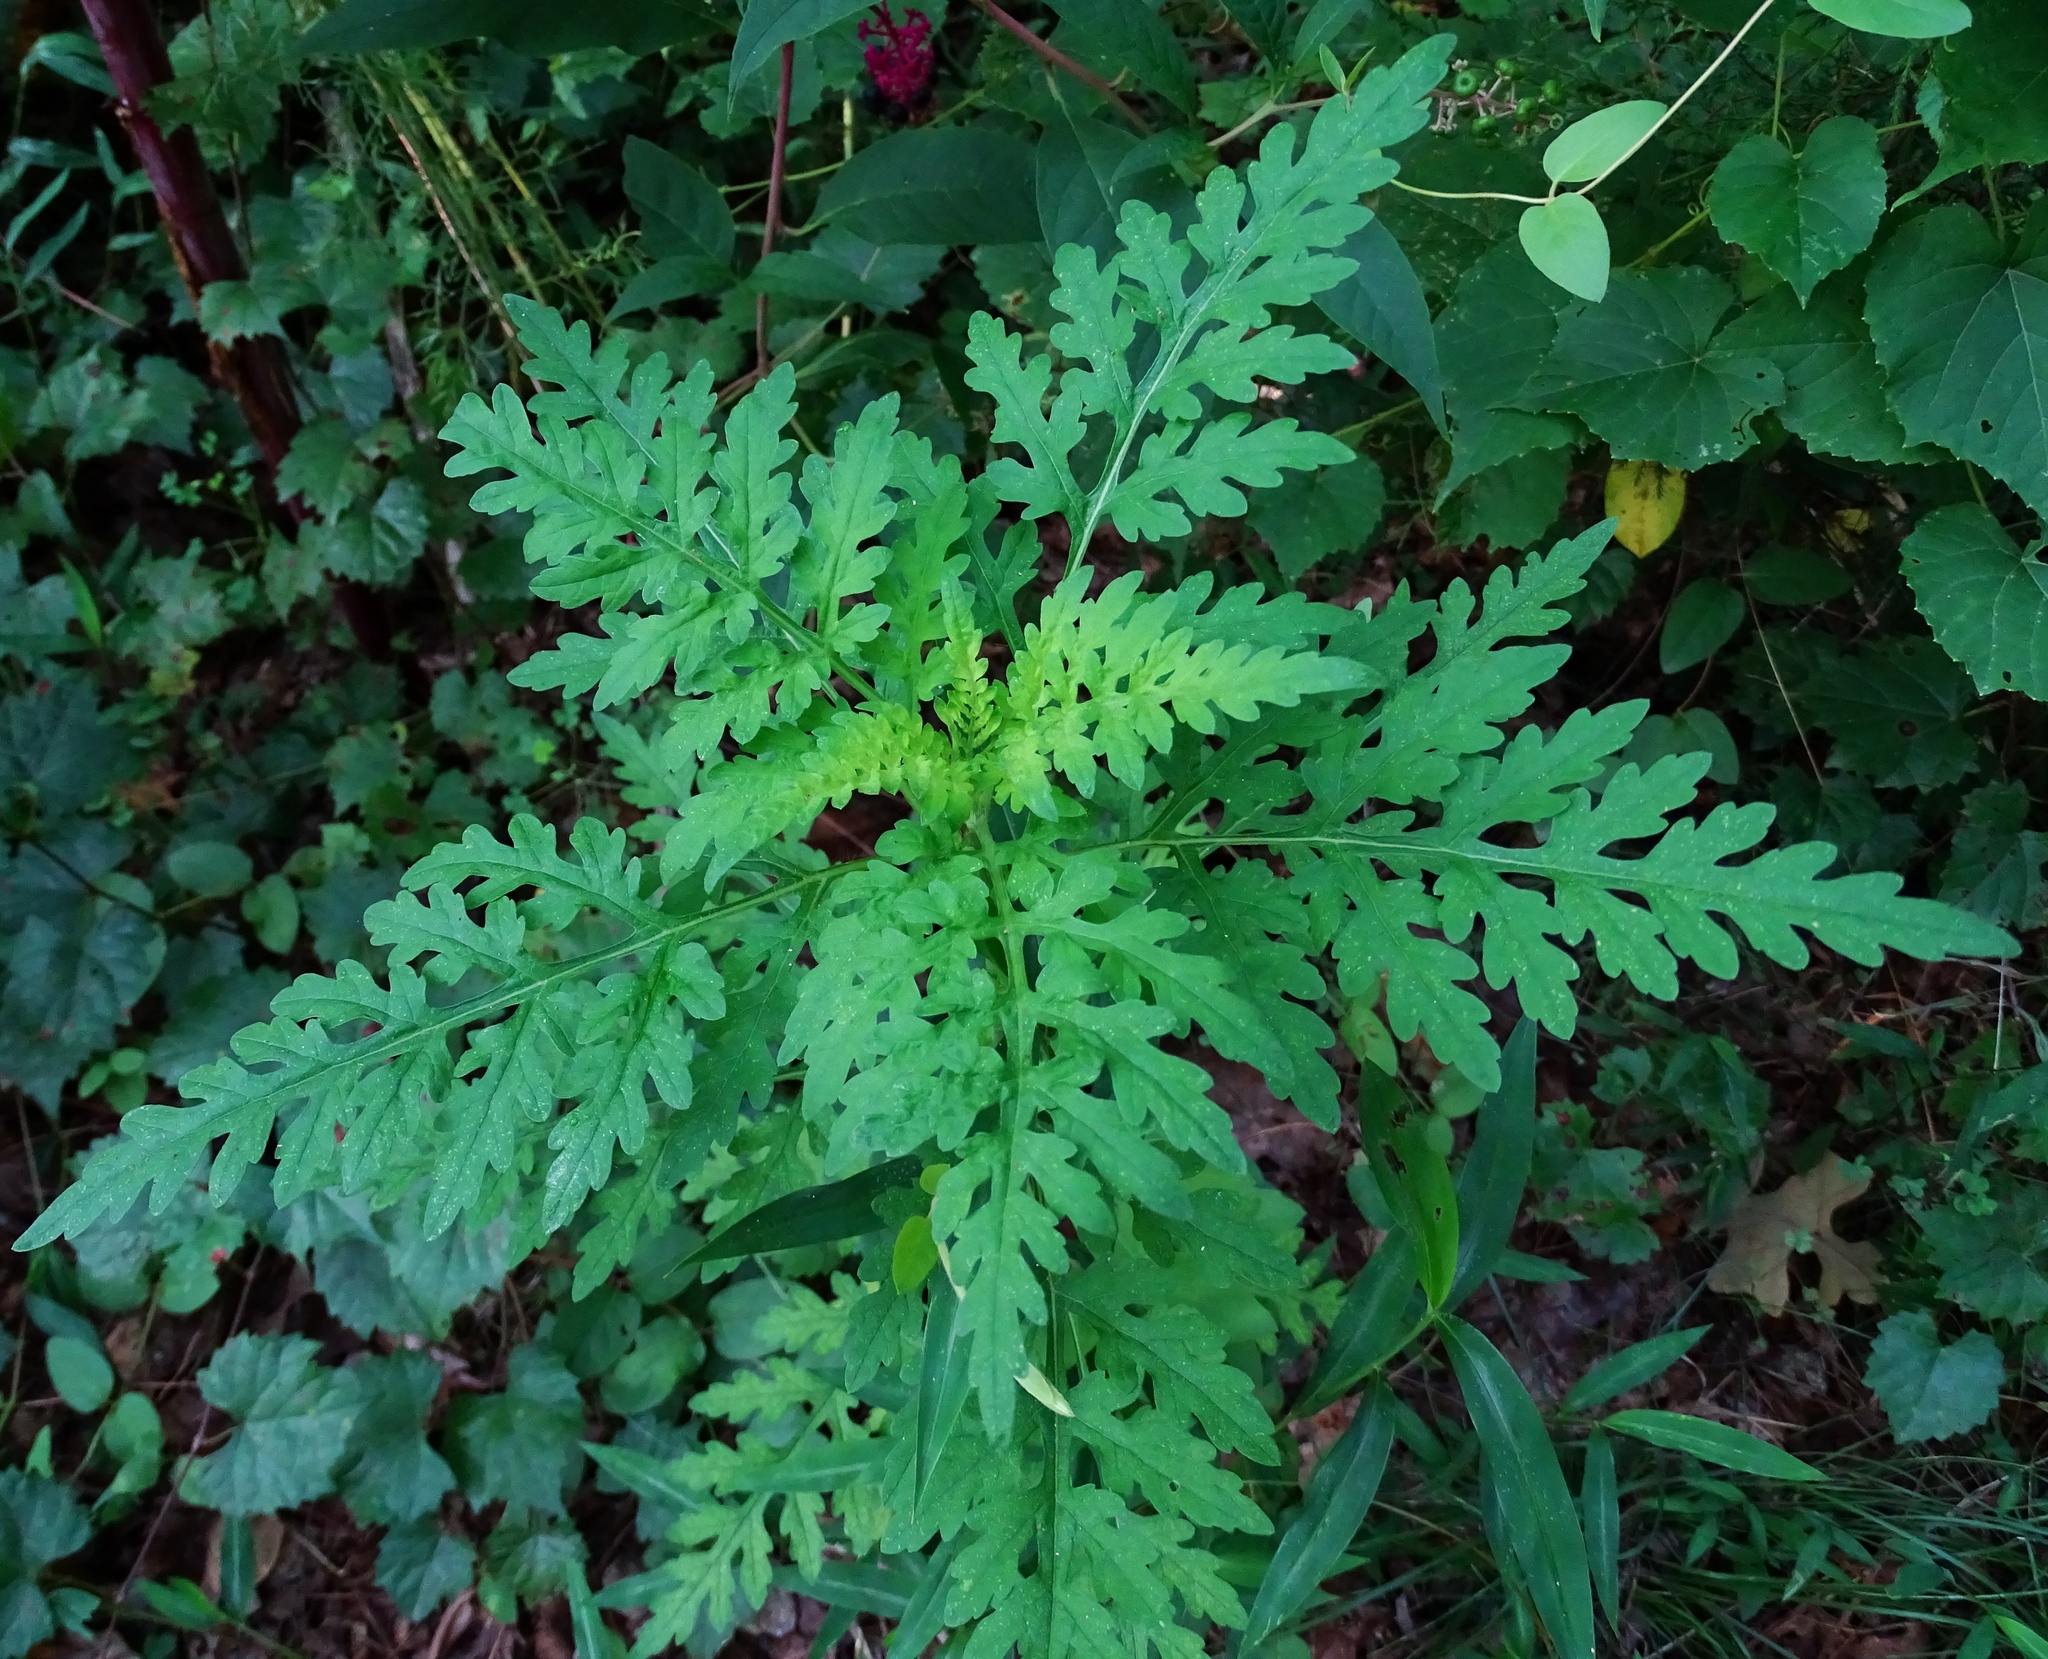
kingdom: Plantae
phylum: Tracheophyta
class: Magnoliopsida
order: Asterales
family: Asteraceae
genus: Ambrosia
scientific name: Ambrosia artemisiifolia
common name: Annual ragweed
